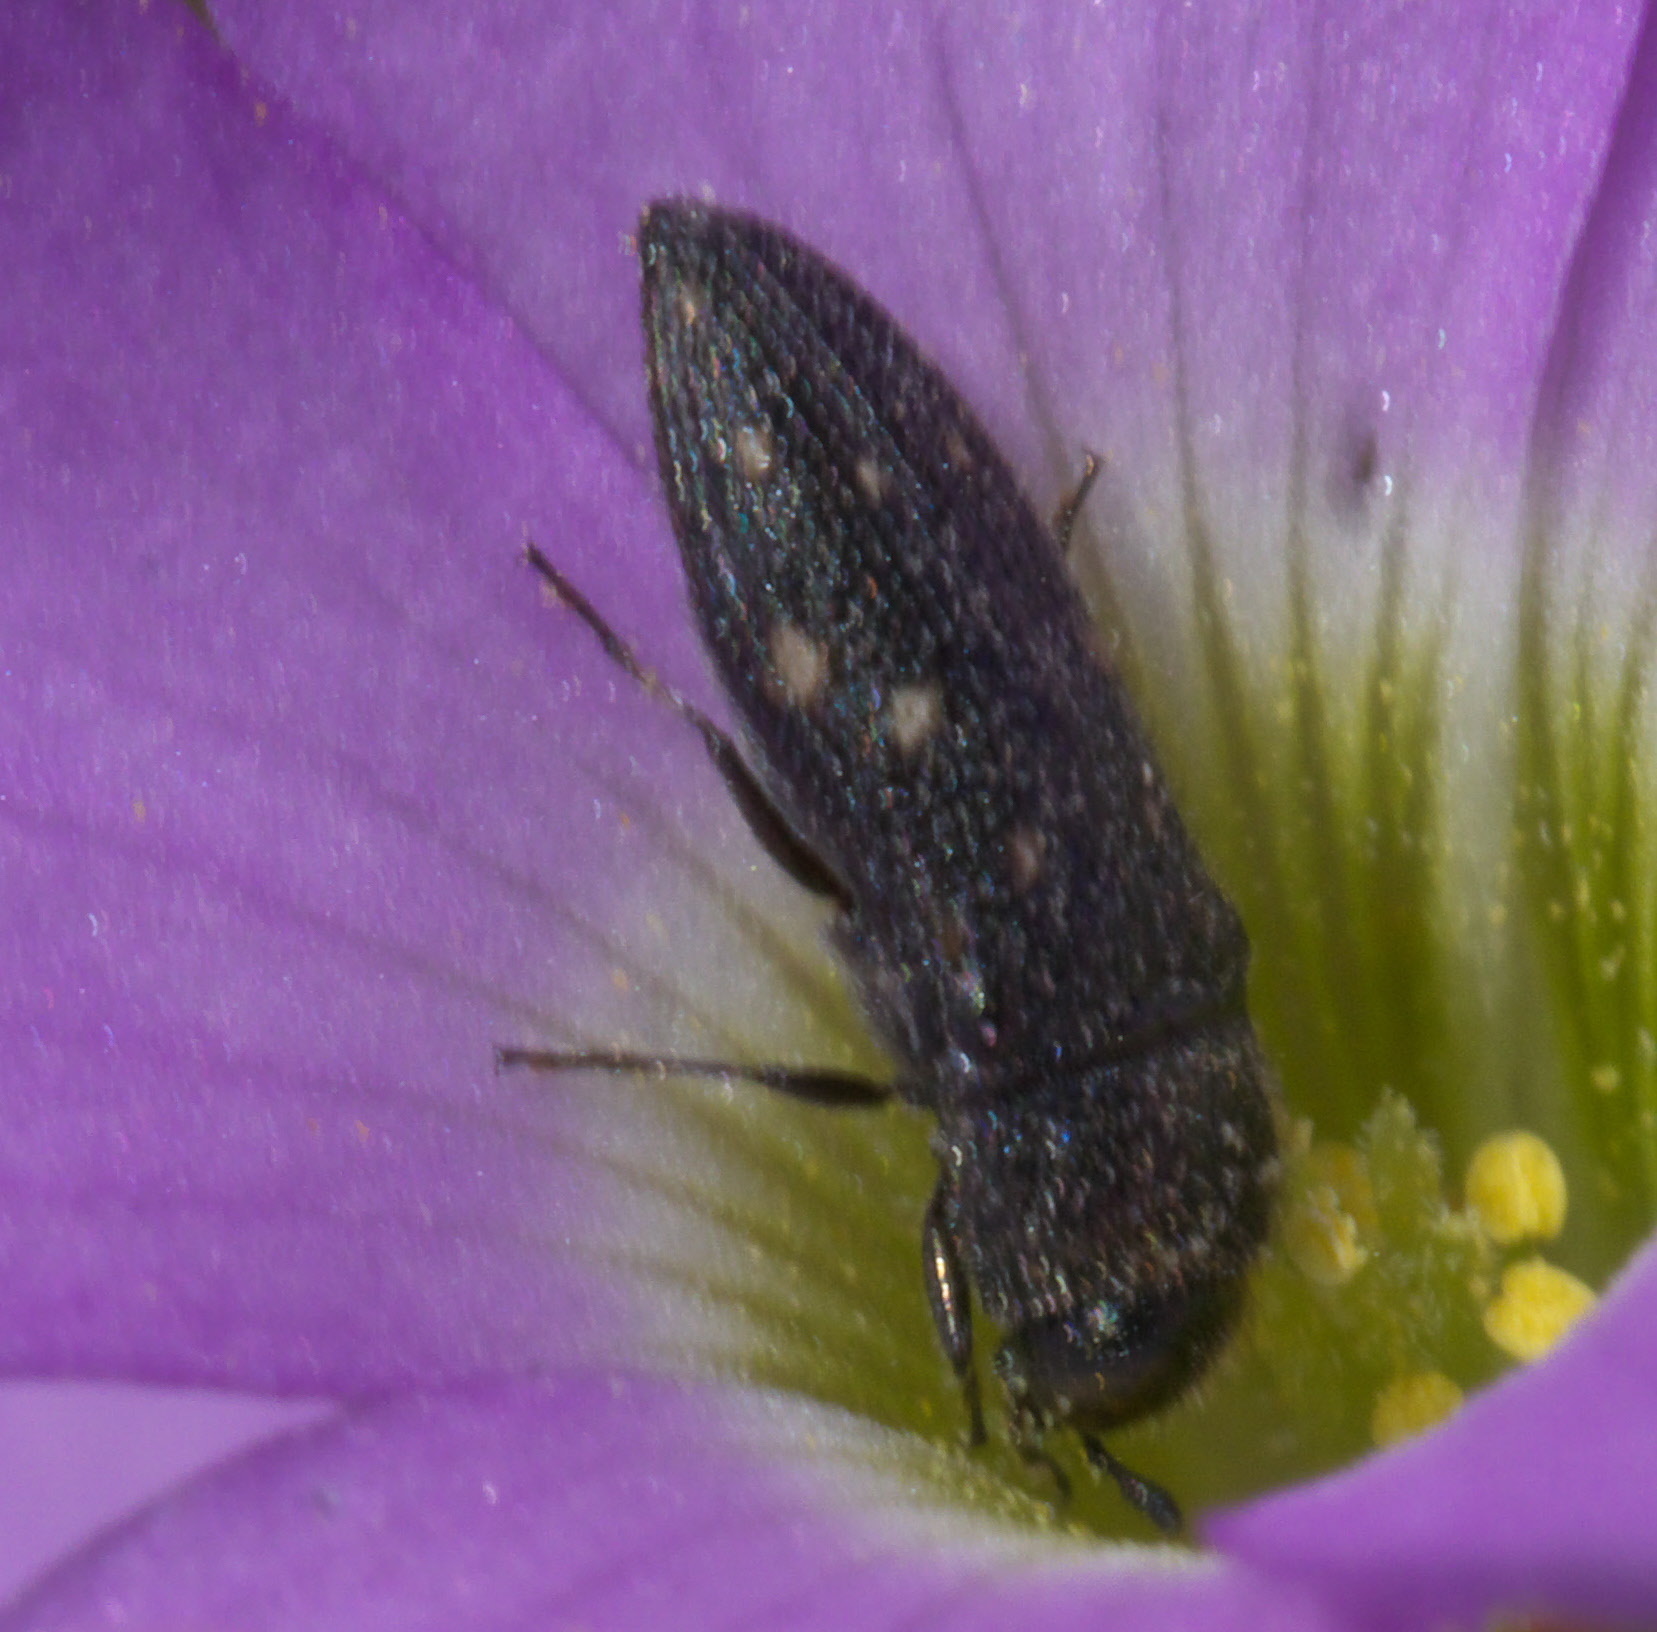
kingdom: Animalia
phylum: Arthropoda
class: Insecta
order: Coleoptera
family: Buprestidae
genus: Acmaeodera
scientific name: Acmaeodera tubulus
